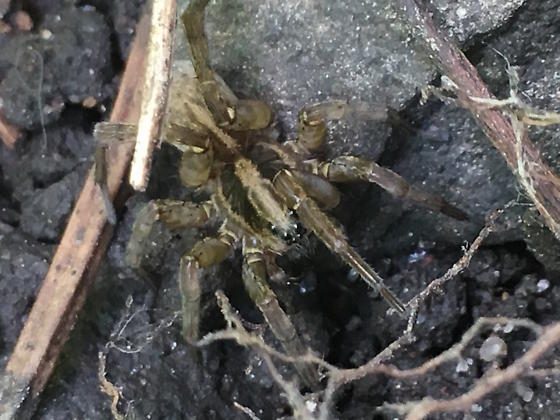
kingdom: Animalia
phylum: Arthropoda
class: Arachnida
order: Araneae
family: Lycosidae
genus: Trochosa
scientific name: Trochosa ruricola
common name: Spider
